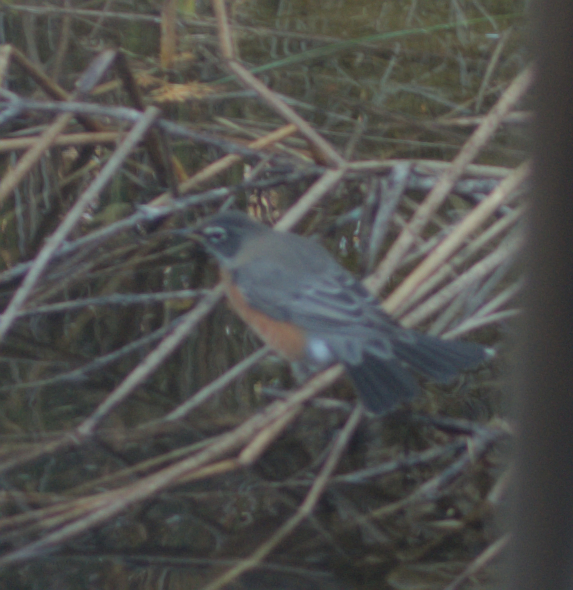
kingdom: Animalia
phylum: Chordata
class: Aves
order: Passeriformes
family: Turdidae
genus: Turdus
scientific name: Turdus migratorius
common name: American robin
